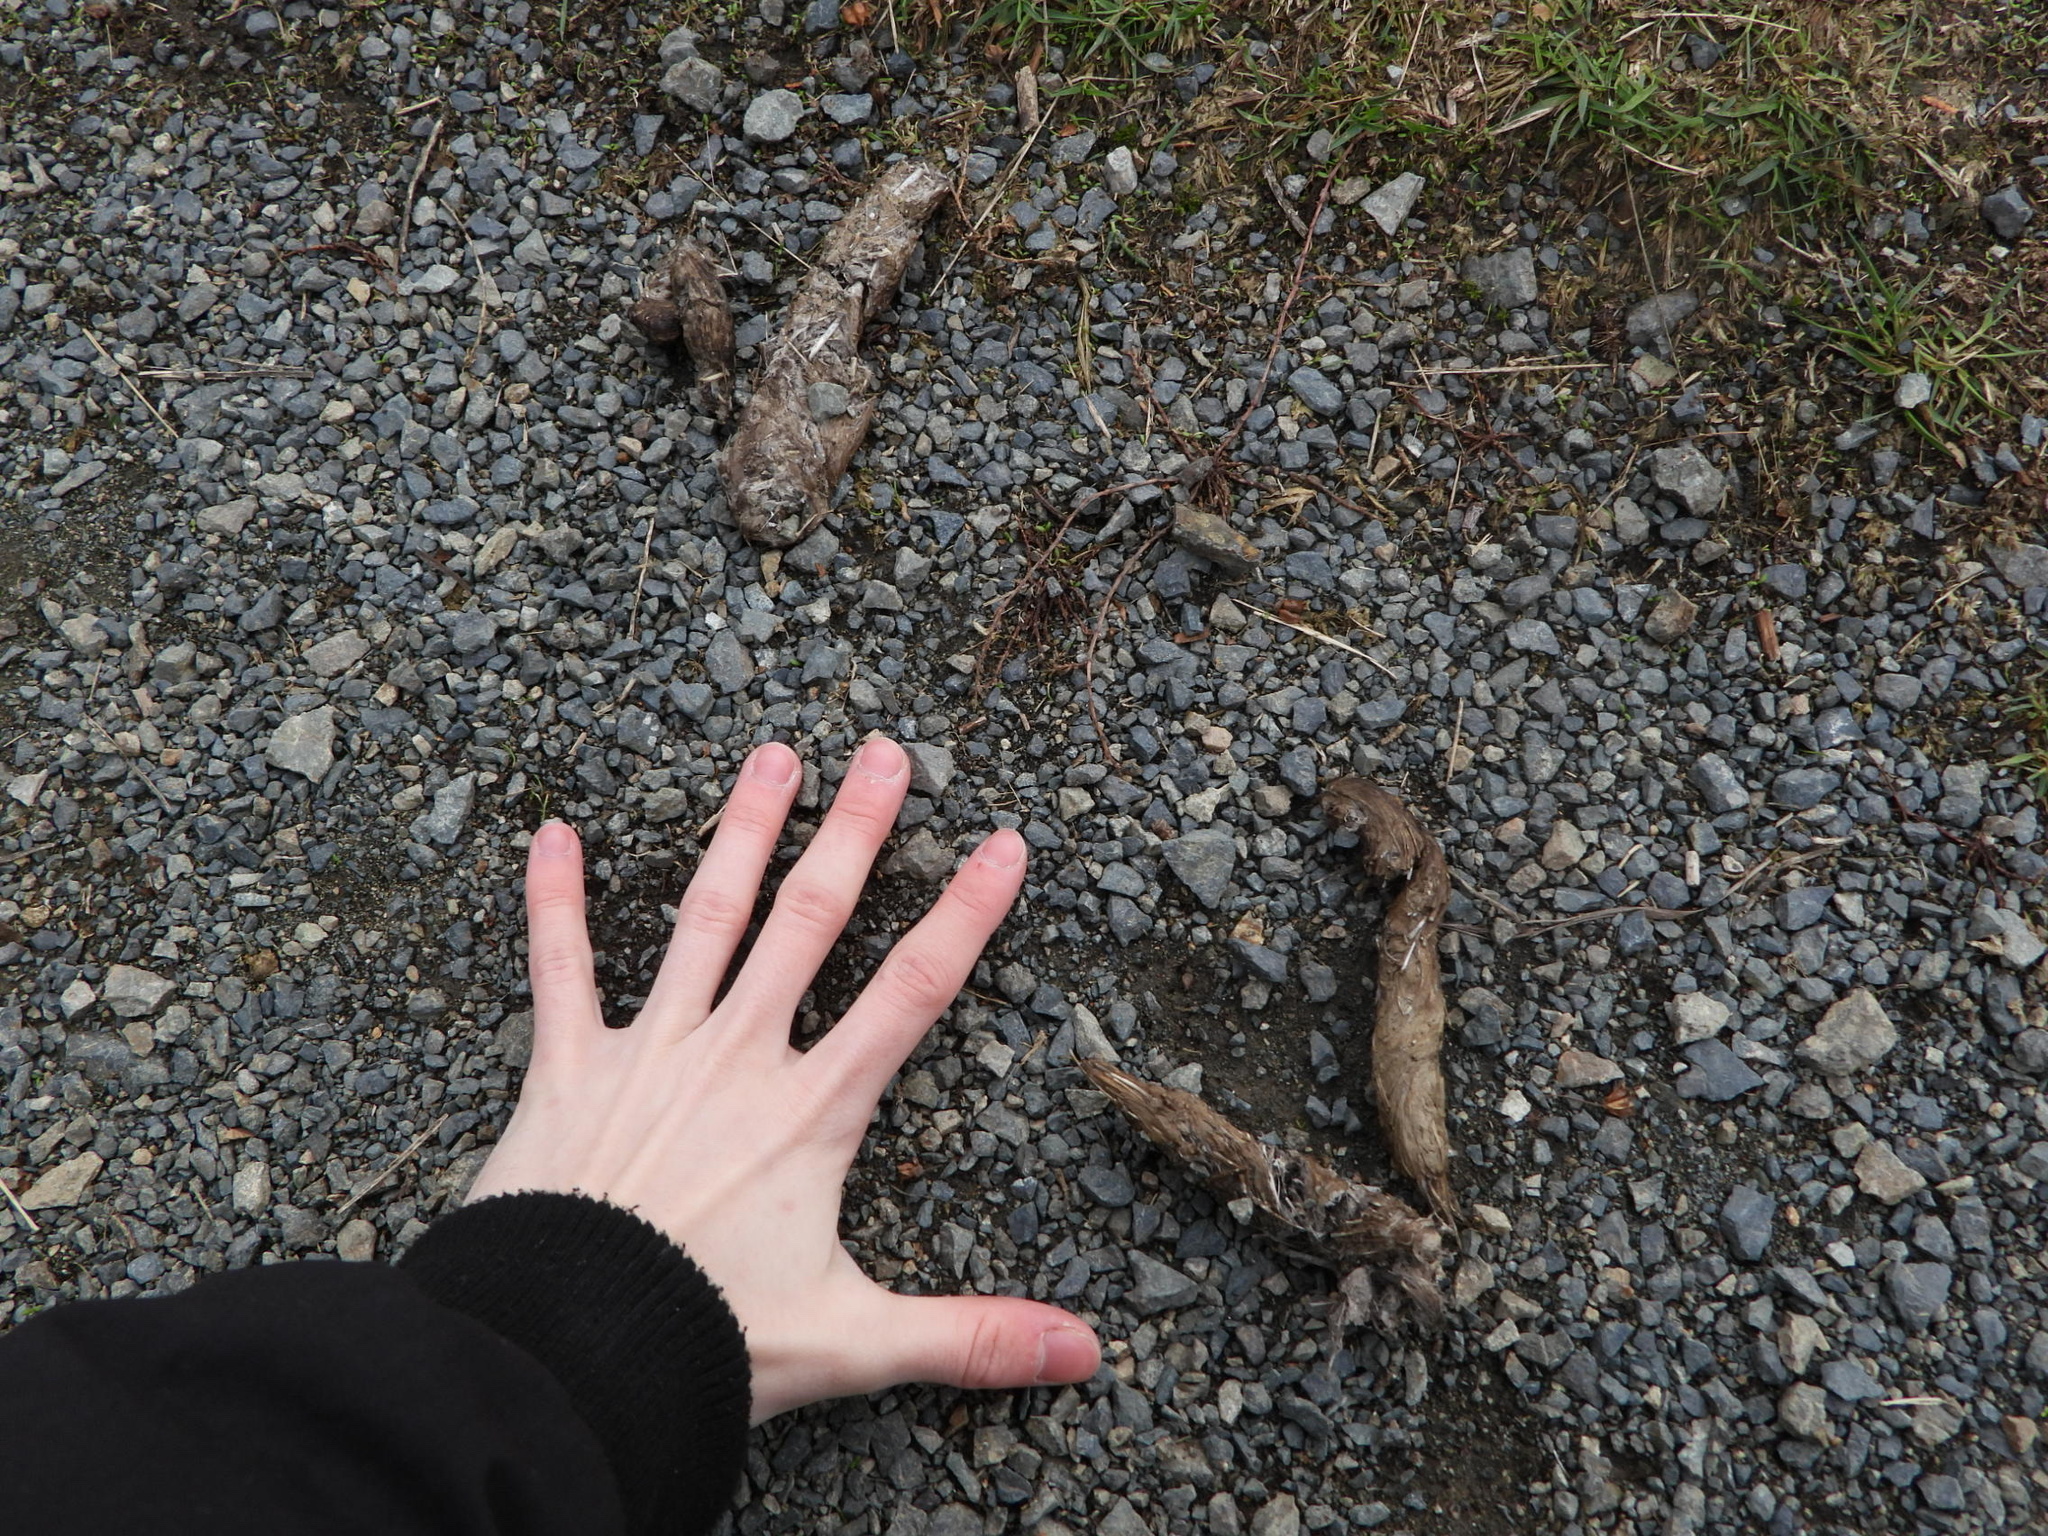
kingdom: Animalia
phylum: Chordata
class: Mammalia
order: Carnivora
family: Canidae
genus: Canis
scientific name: Canis latrans
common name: Coyote
